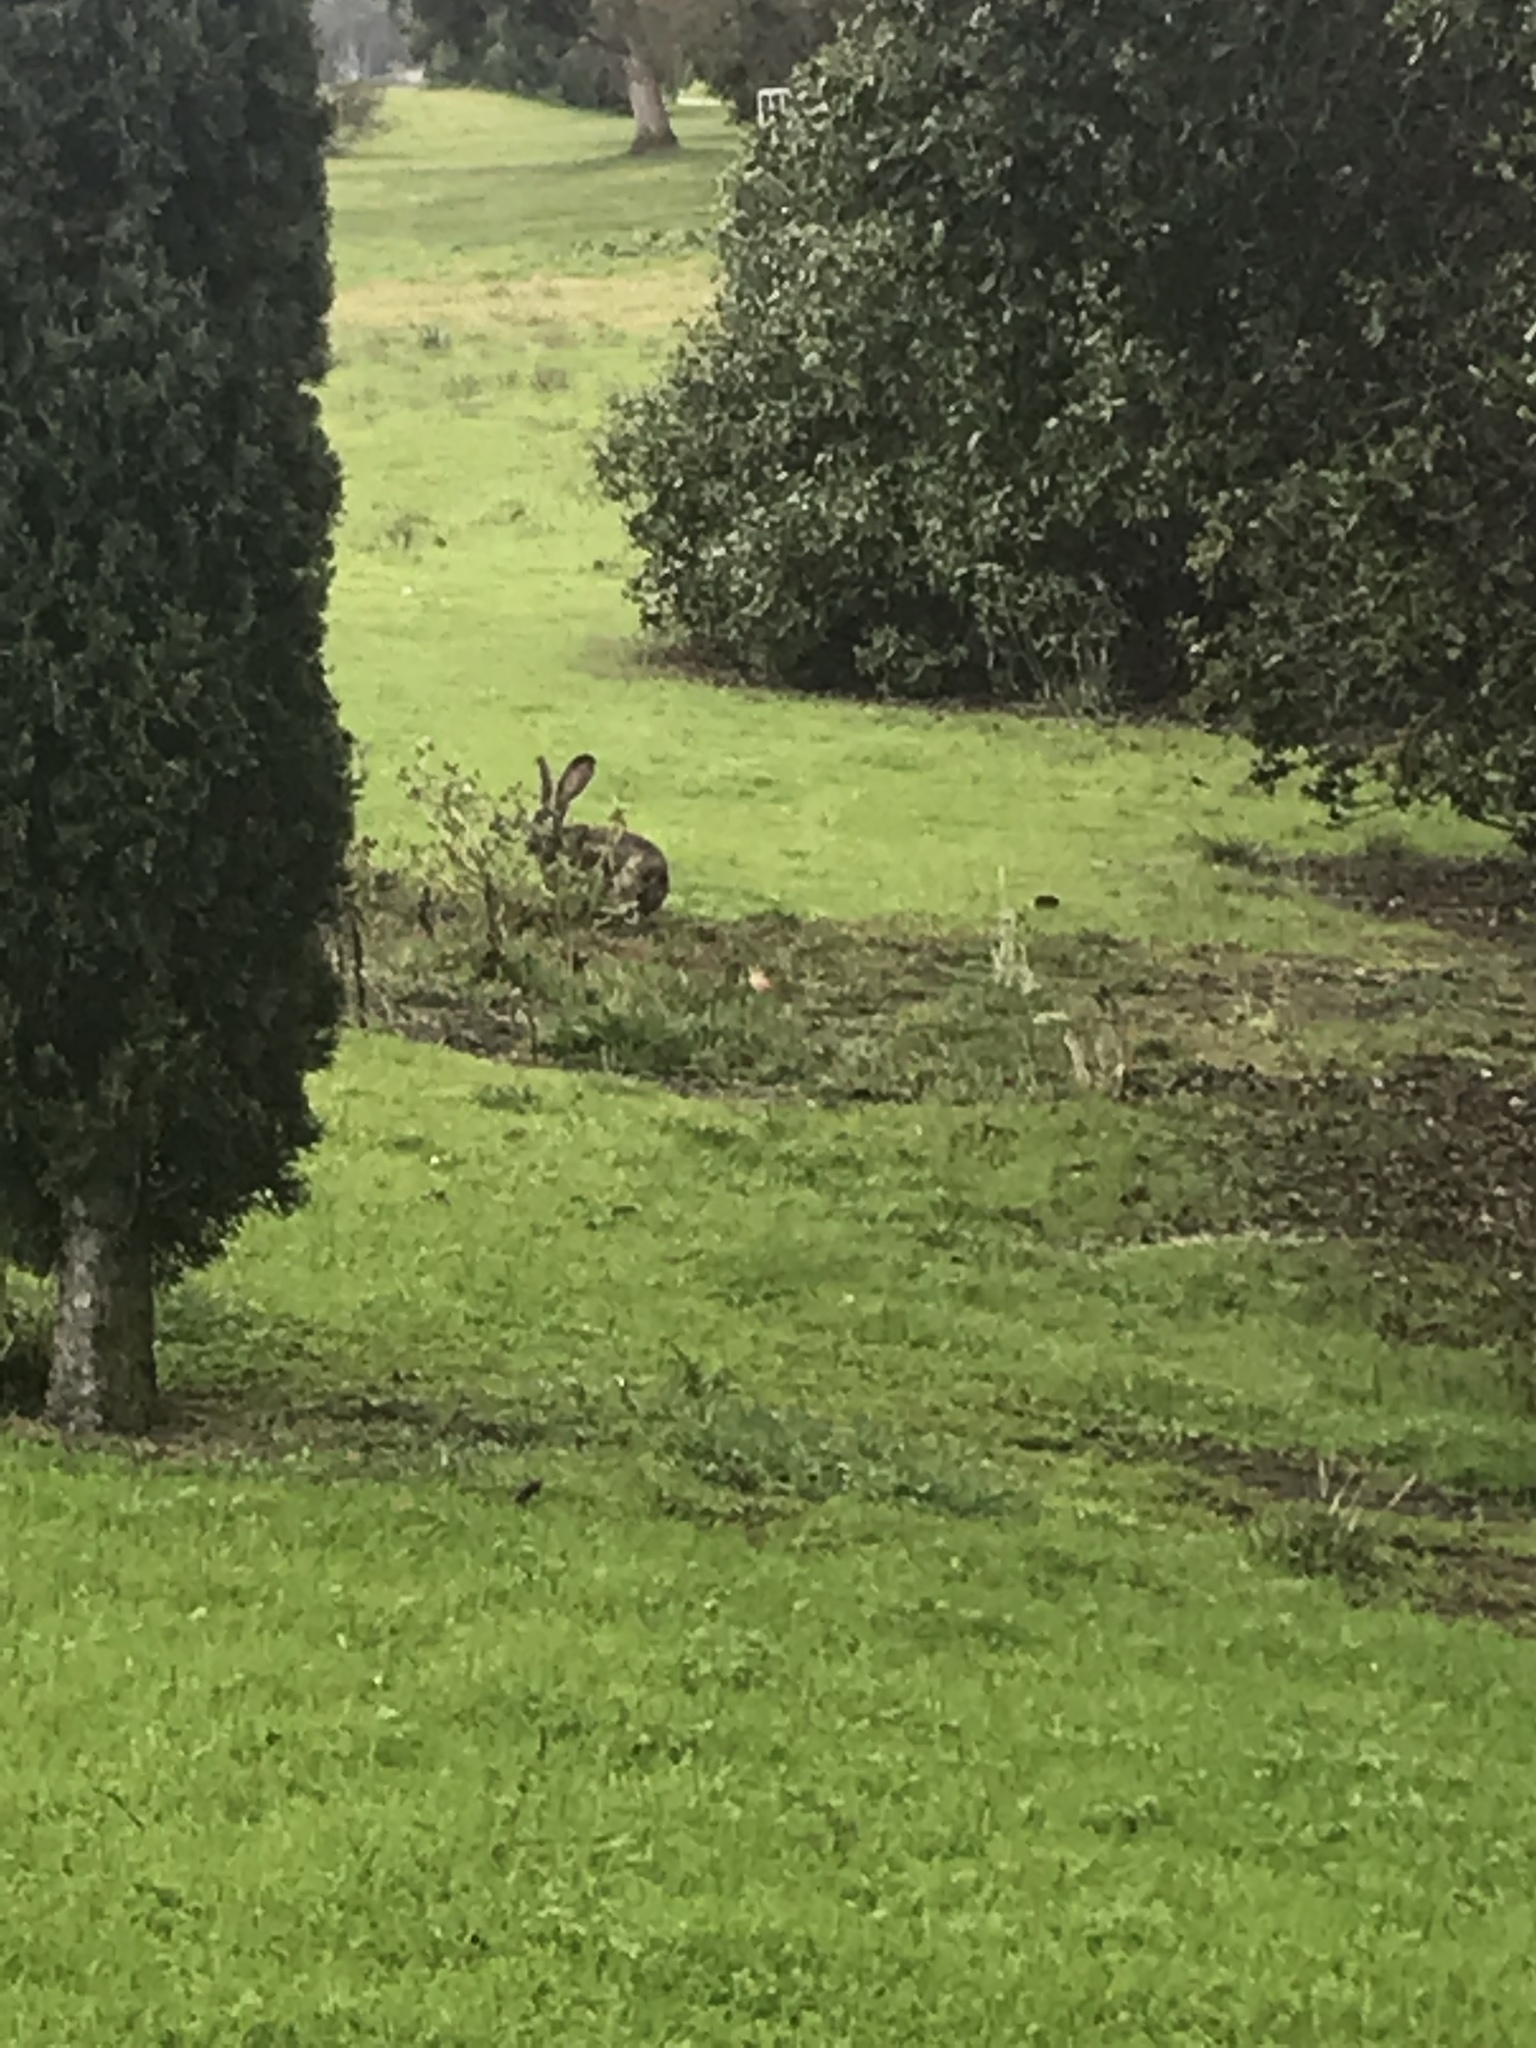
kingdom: Animalia
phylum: Chordata
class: Mammalia
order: Lagomorpha
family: Leporidae
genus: Lepus
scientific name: Lepus californicus
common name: Black-tailed jackrabbit
